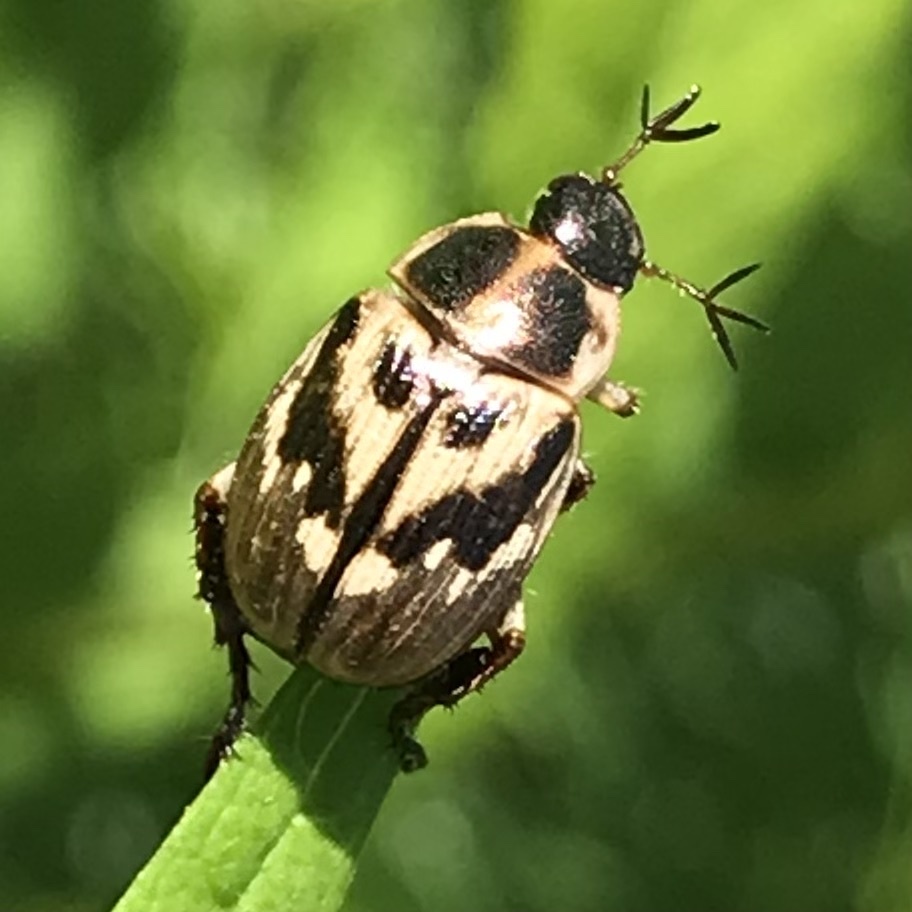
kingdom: Animalia
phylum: Arthropoda
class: Insecta
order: Coleoptera
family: Scarabaeidae
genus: Exomala
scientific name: Exomala orientalis
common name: Oriental beetle
